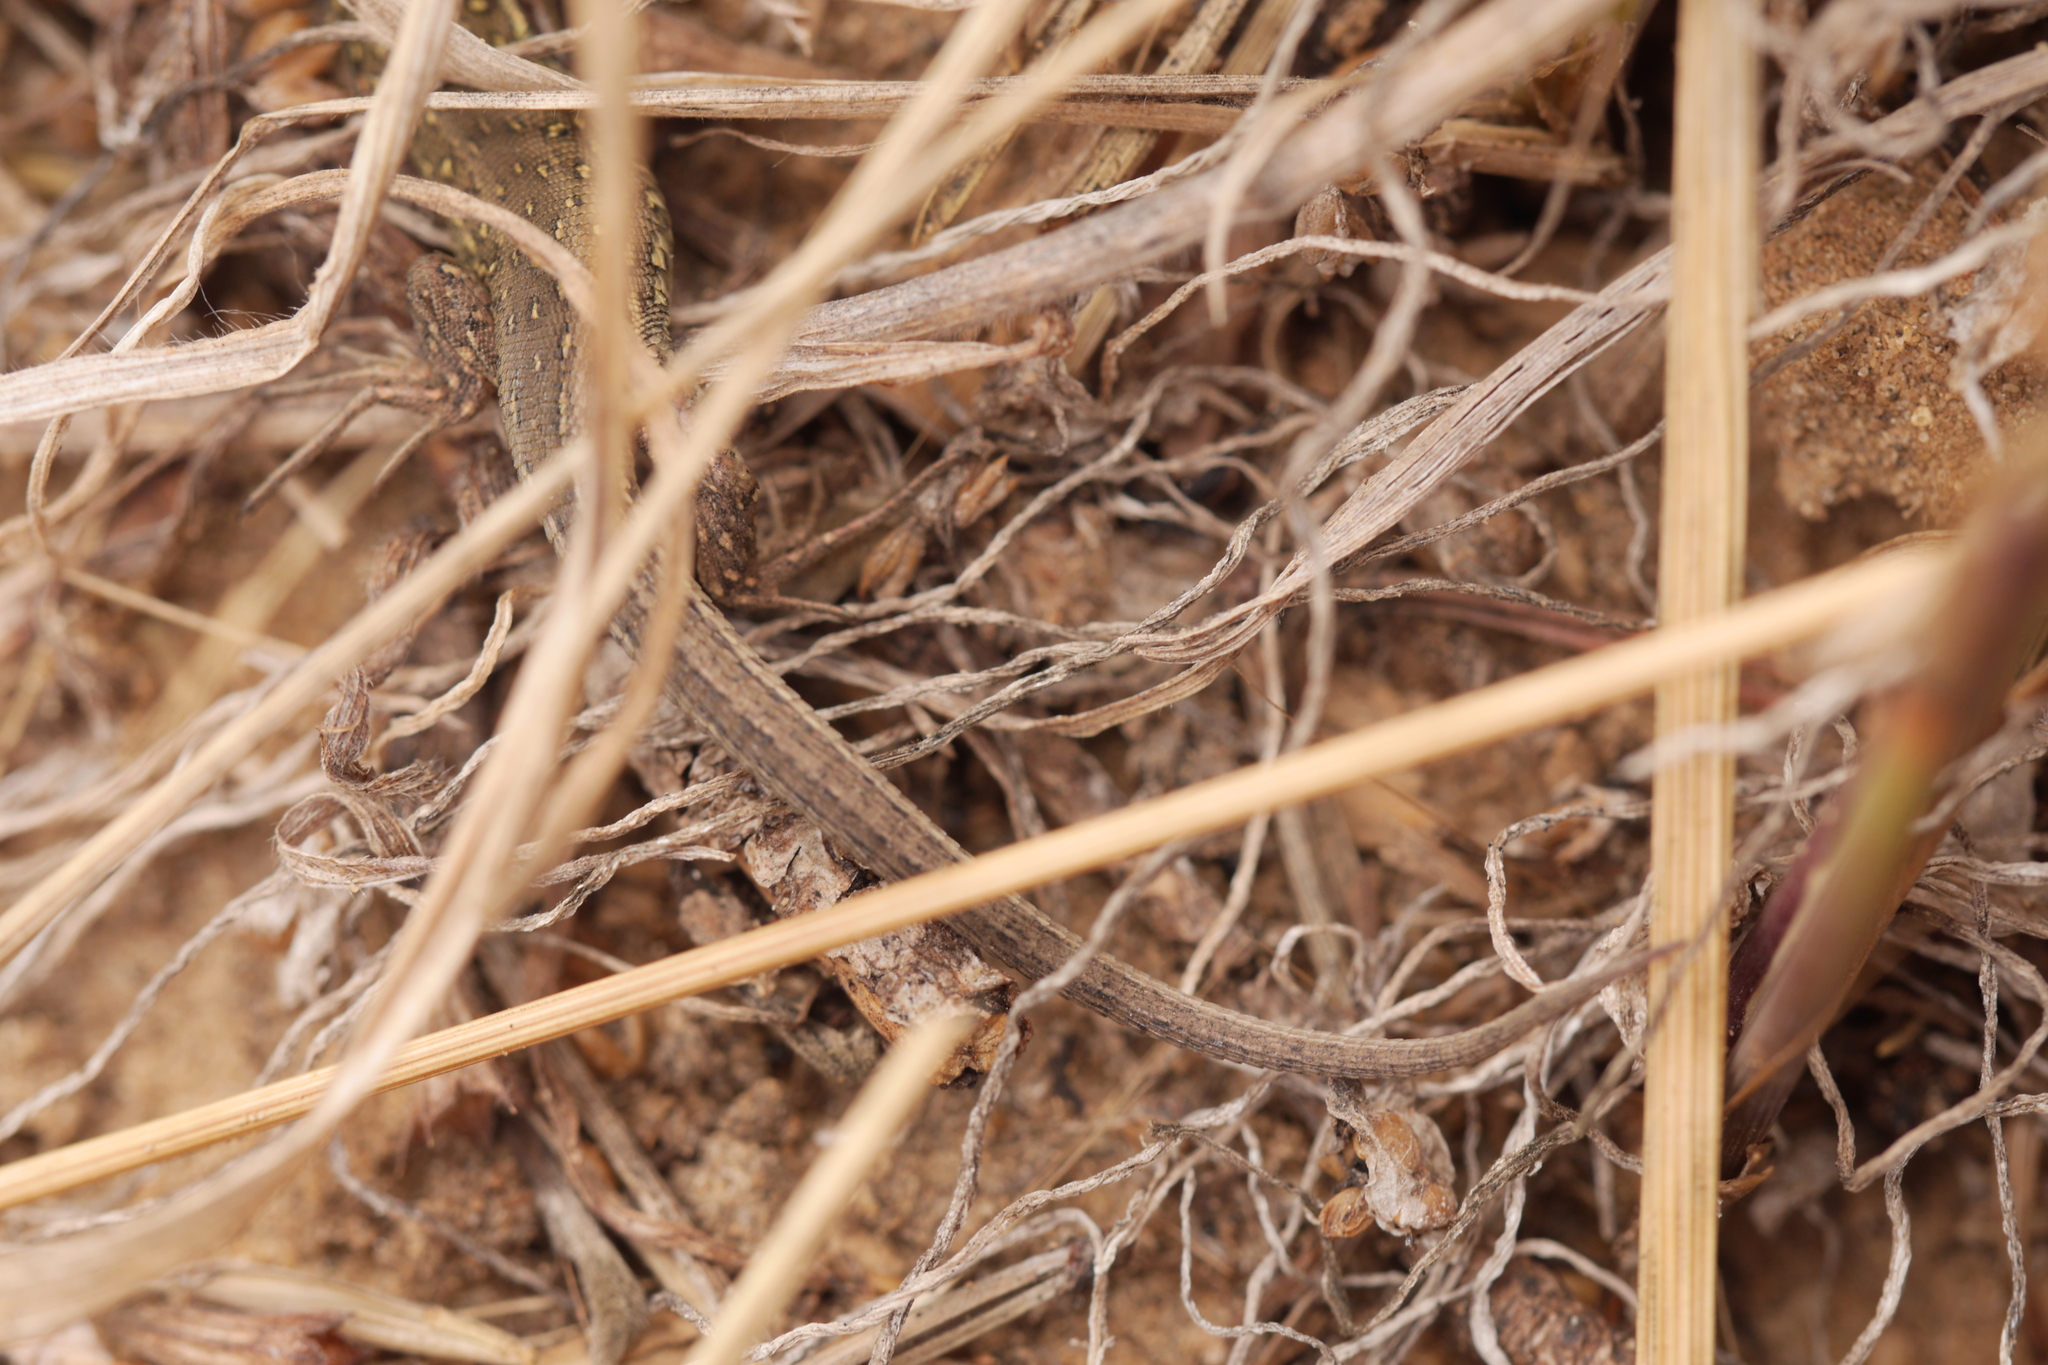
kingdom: Animalia
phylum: Chordata
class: Squamata
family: Lacertidae
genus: Lacerta
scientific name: Lacerta agilis
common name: Sand lizard
